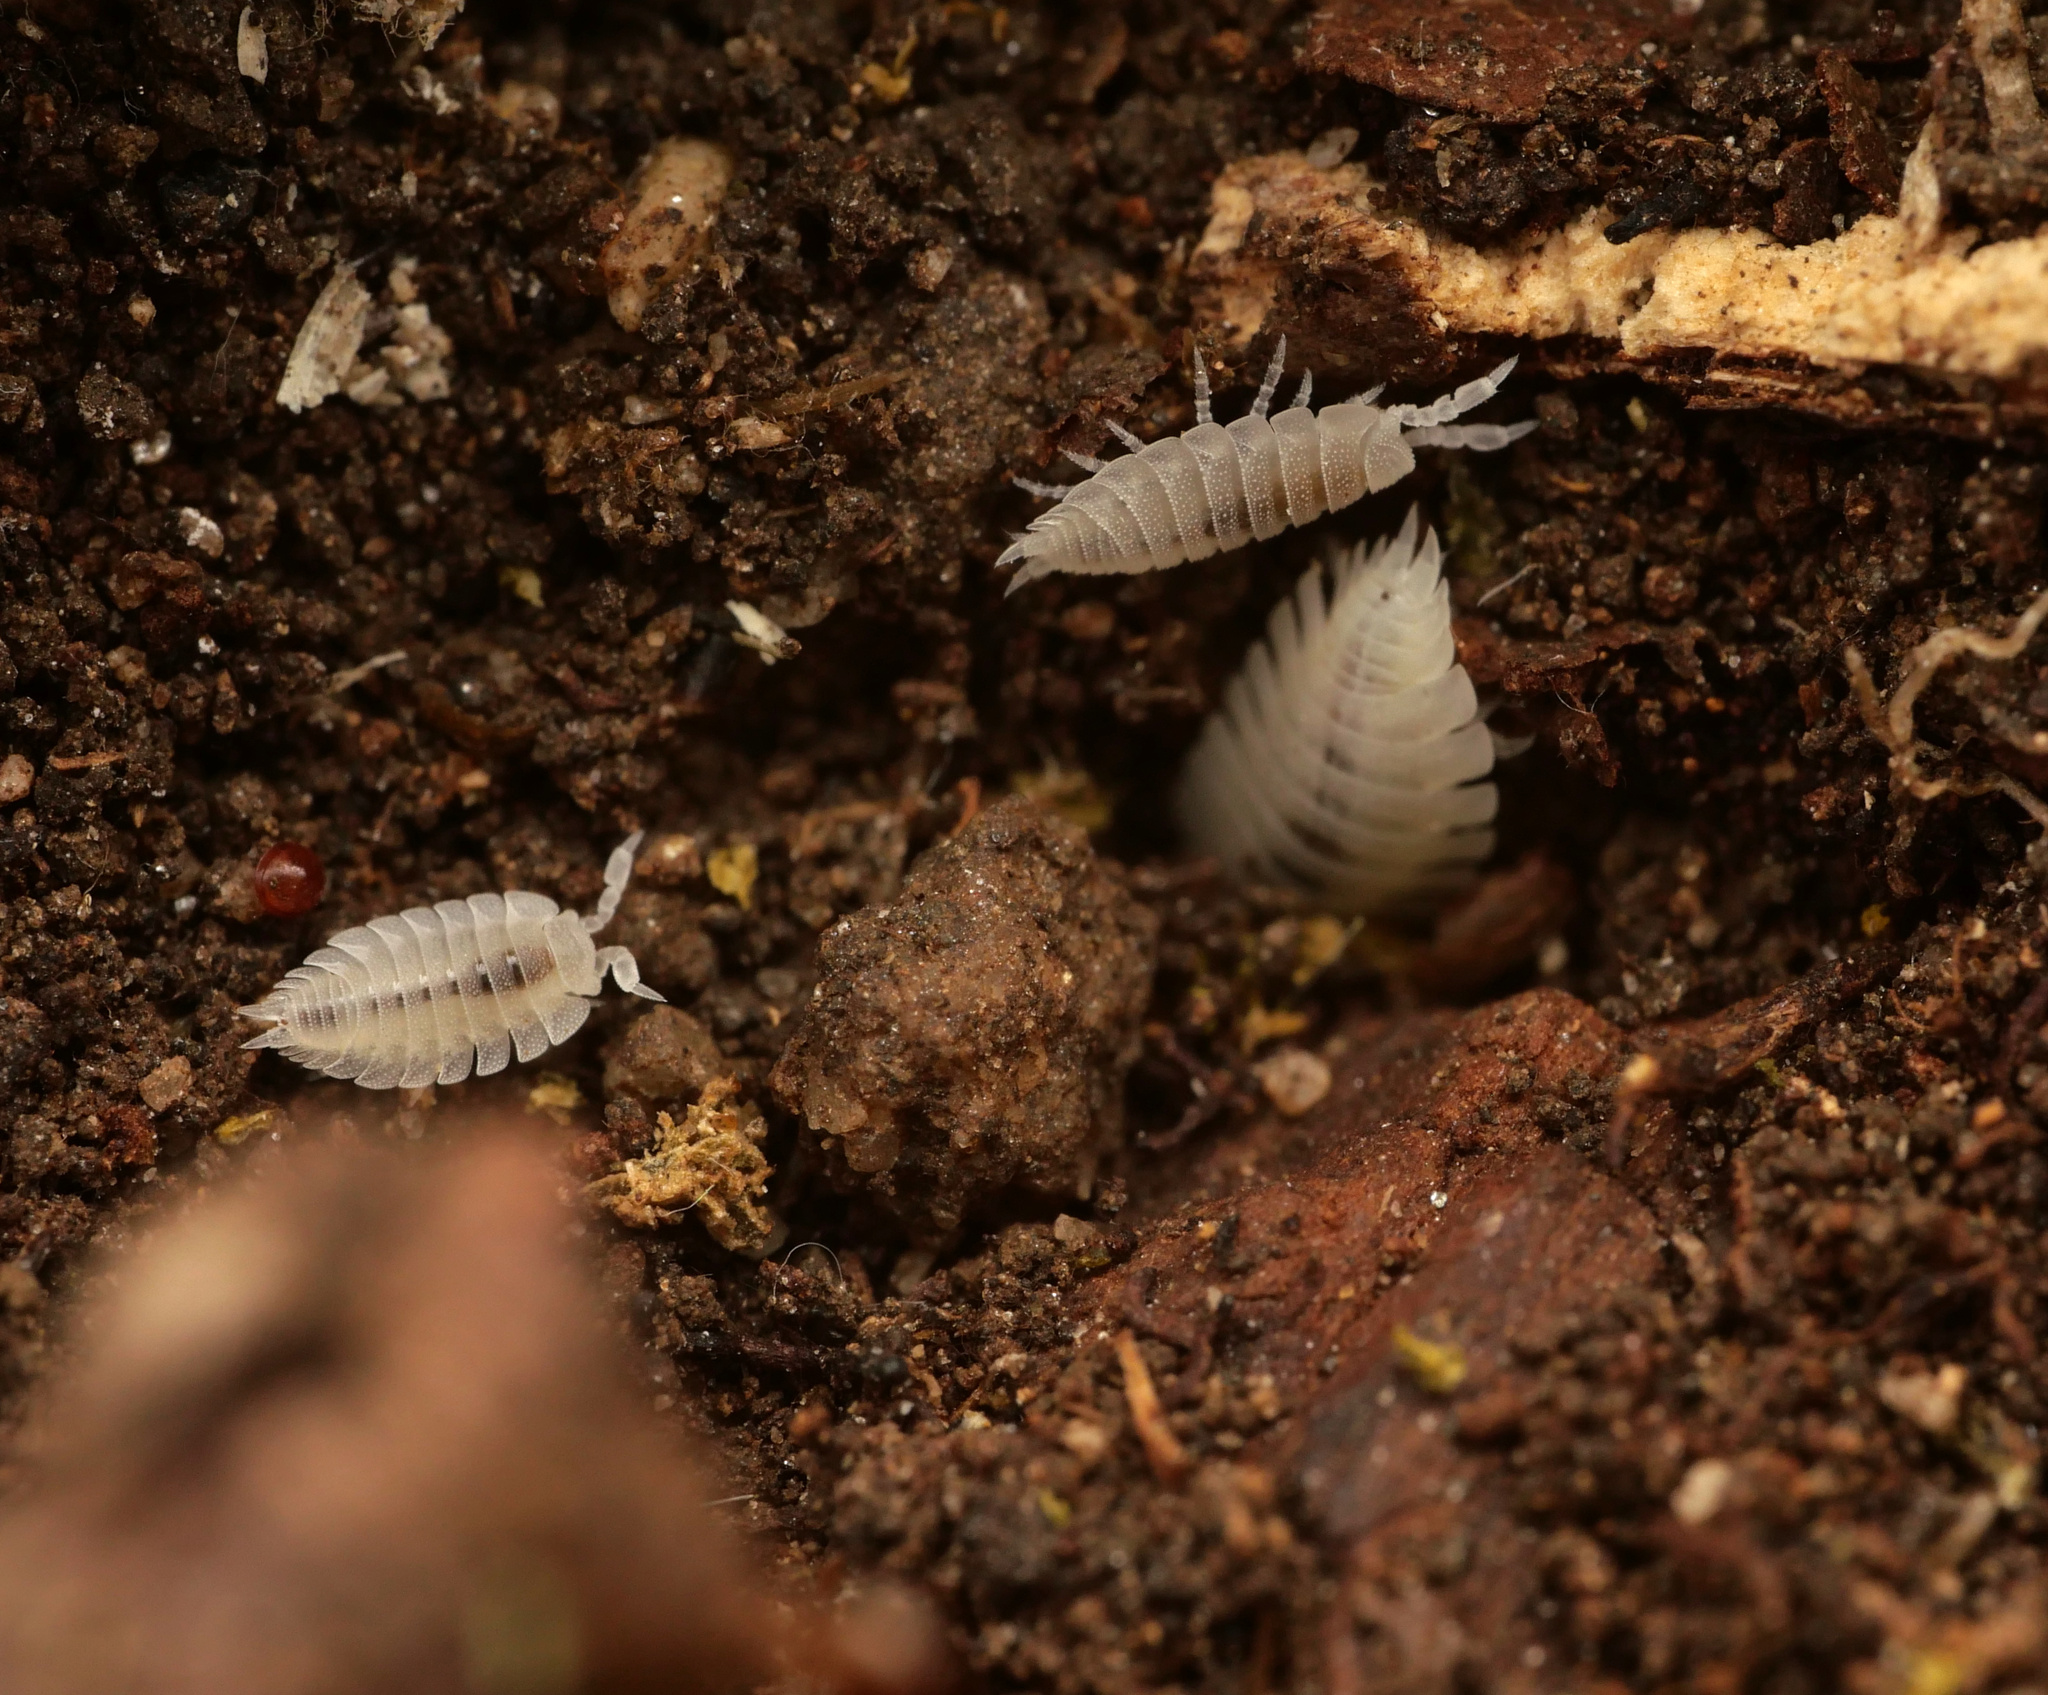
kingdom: Animalia
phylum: Arthropoda
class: Malacostraca
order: Isopoda
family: Platyarthridae
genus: Platyarthrus
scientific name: Platyarthrus hoffmannseggii
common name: Ant woodlouse
